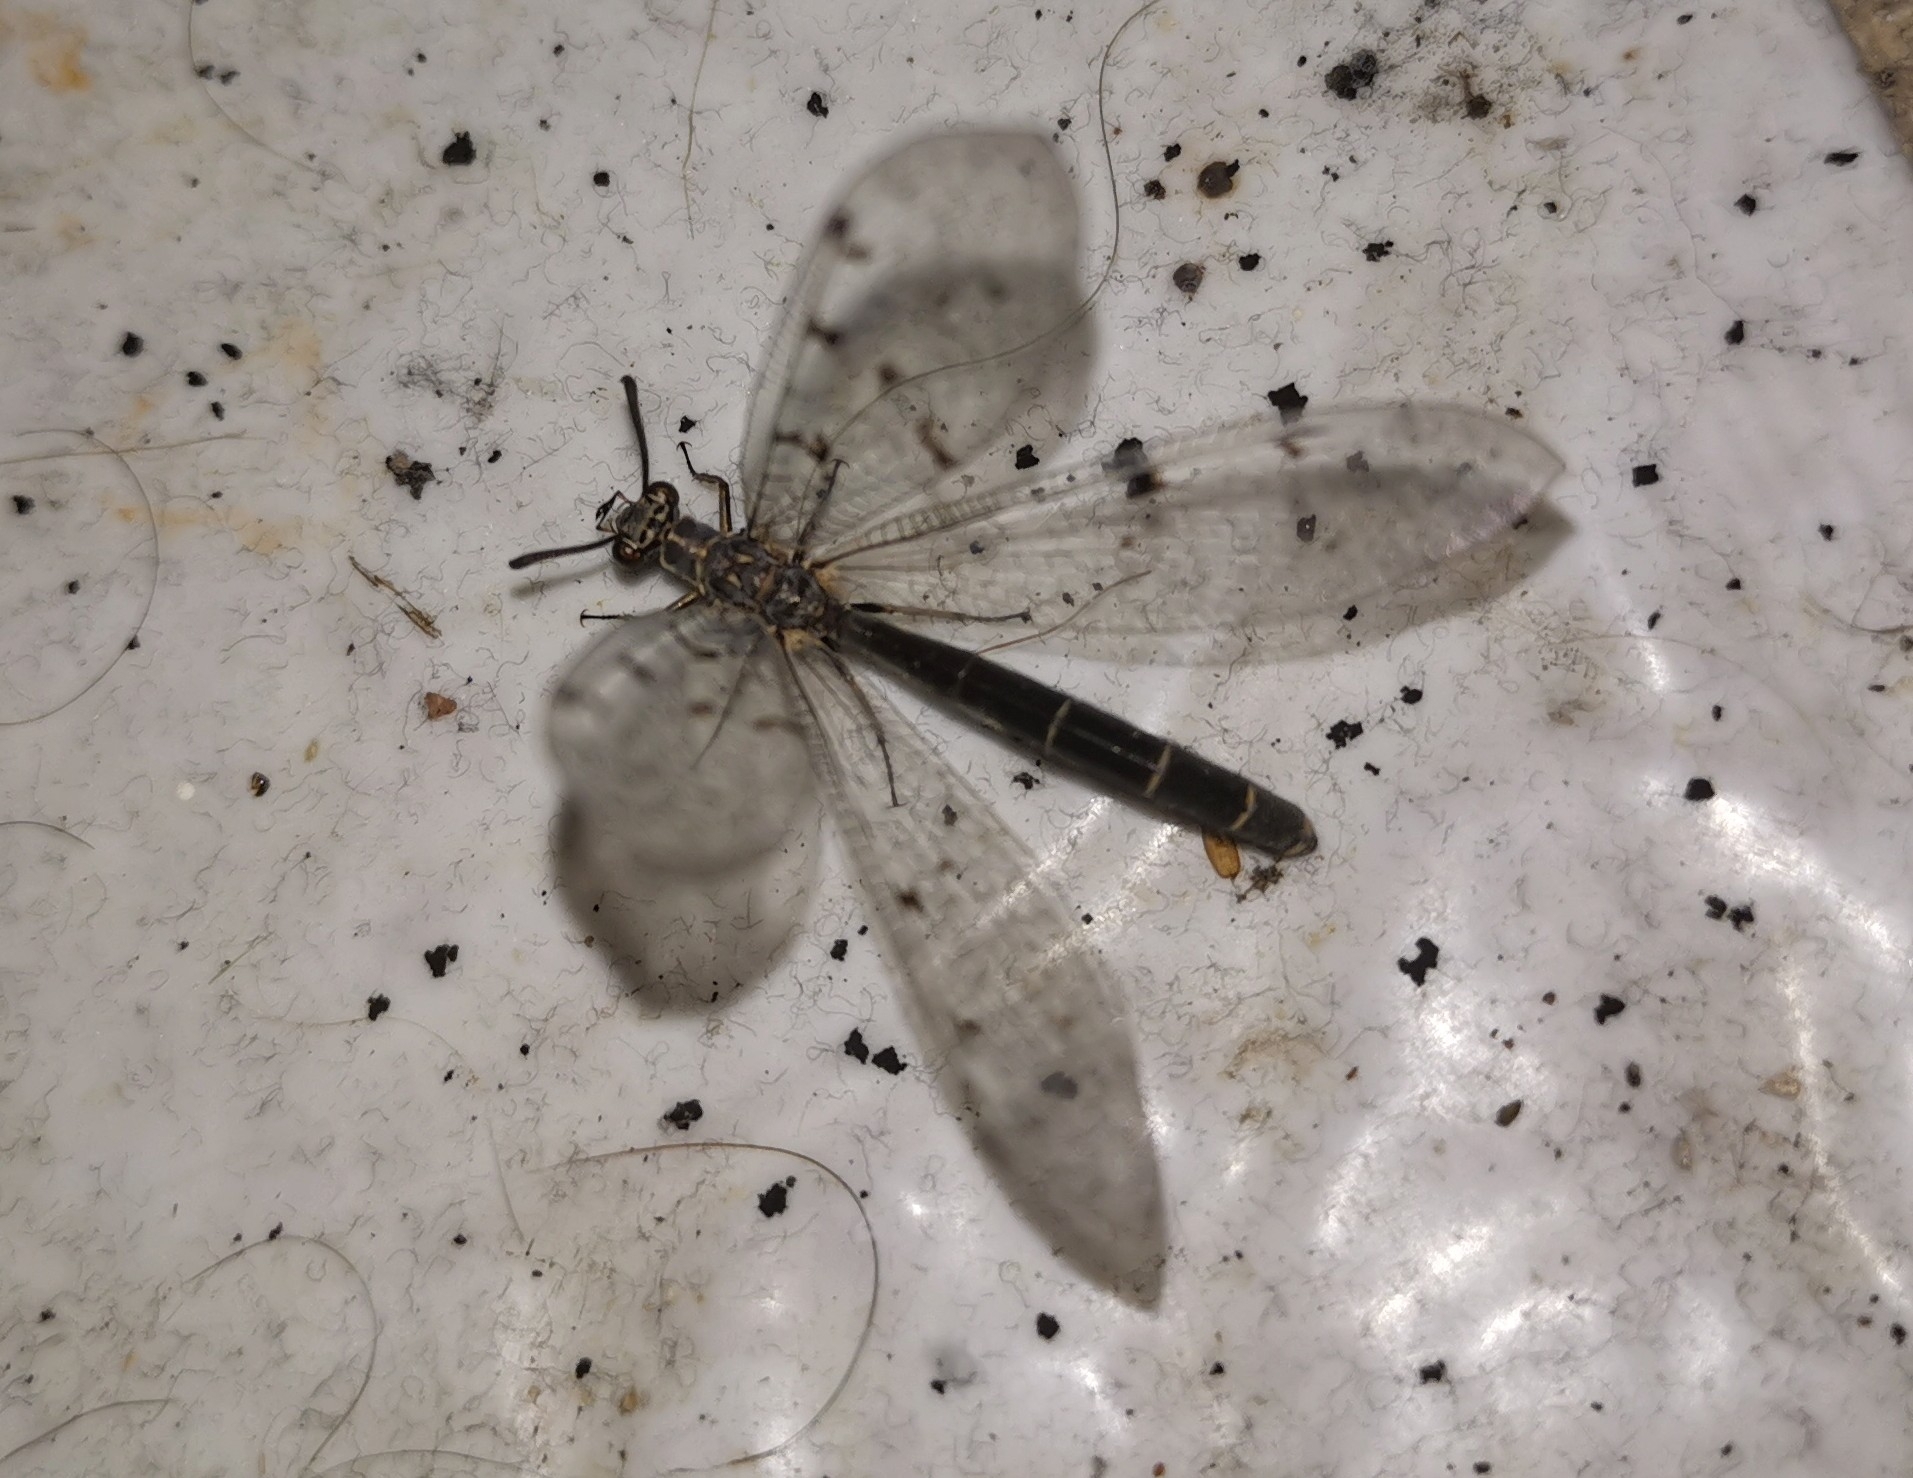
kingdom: Animalia
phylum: Arthropoda
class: Insecta
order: Neuroptera
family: Myrmeleontidae
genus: Euroleon
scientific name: Euroleon nostras
